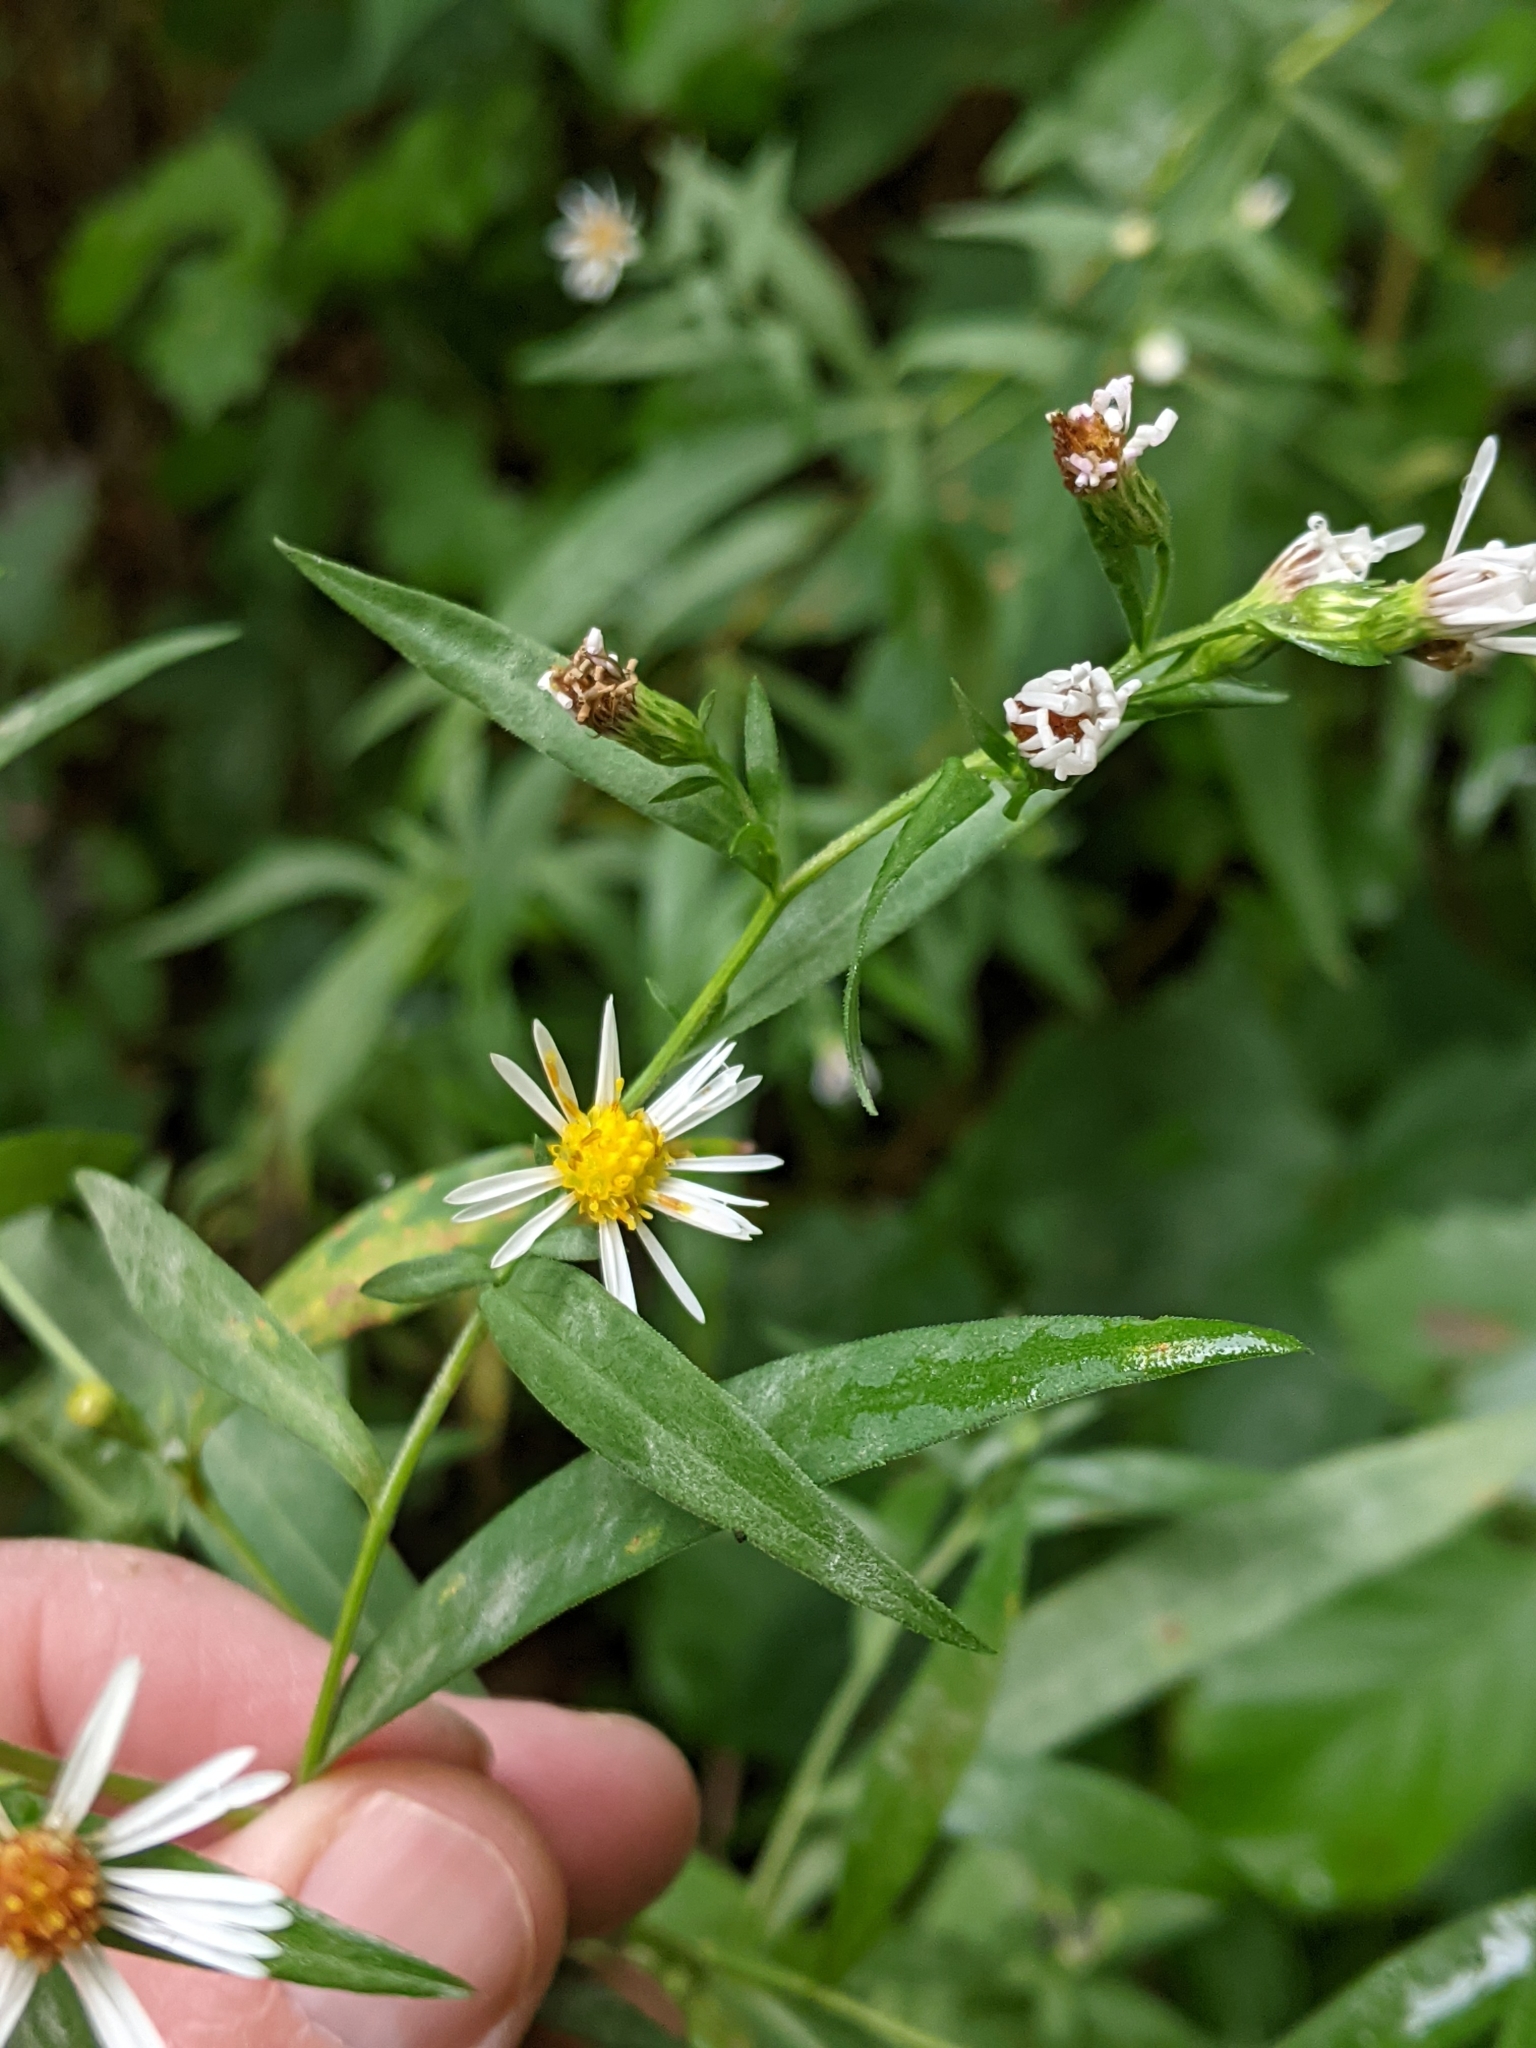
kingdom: Plantae
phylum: Tracheophyta
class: Magnoliopsida
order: Asterales
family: Asteraceae
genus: Symphyotrichum
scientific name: Symphyotrichum lanceolatum
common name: Panicled aster
